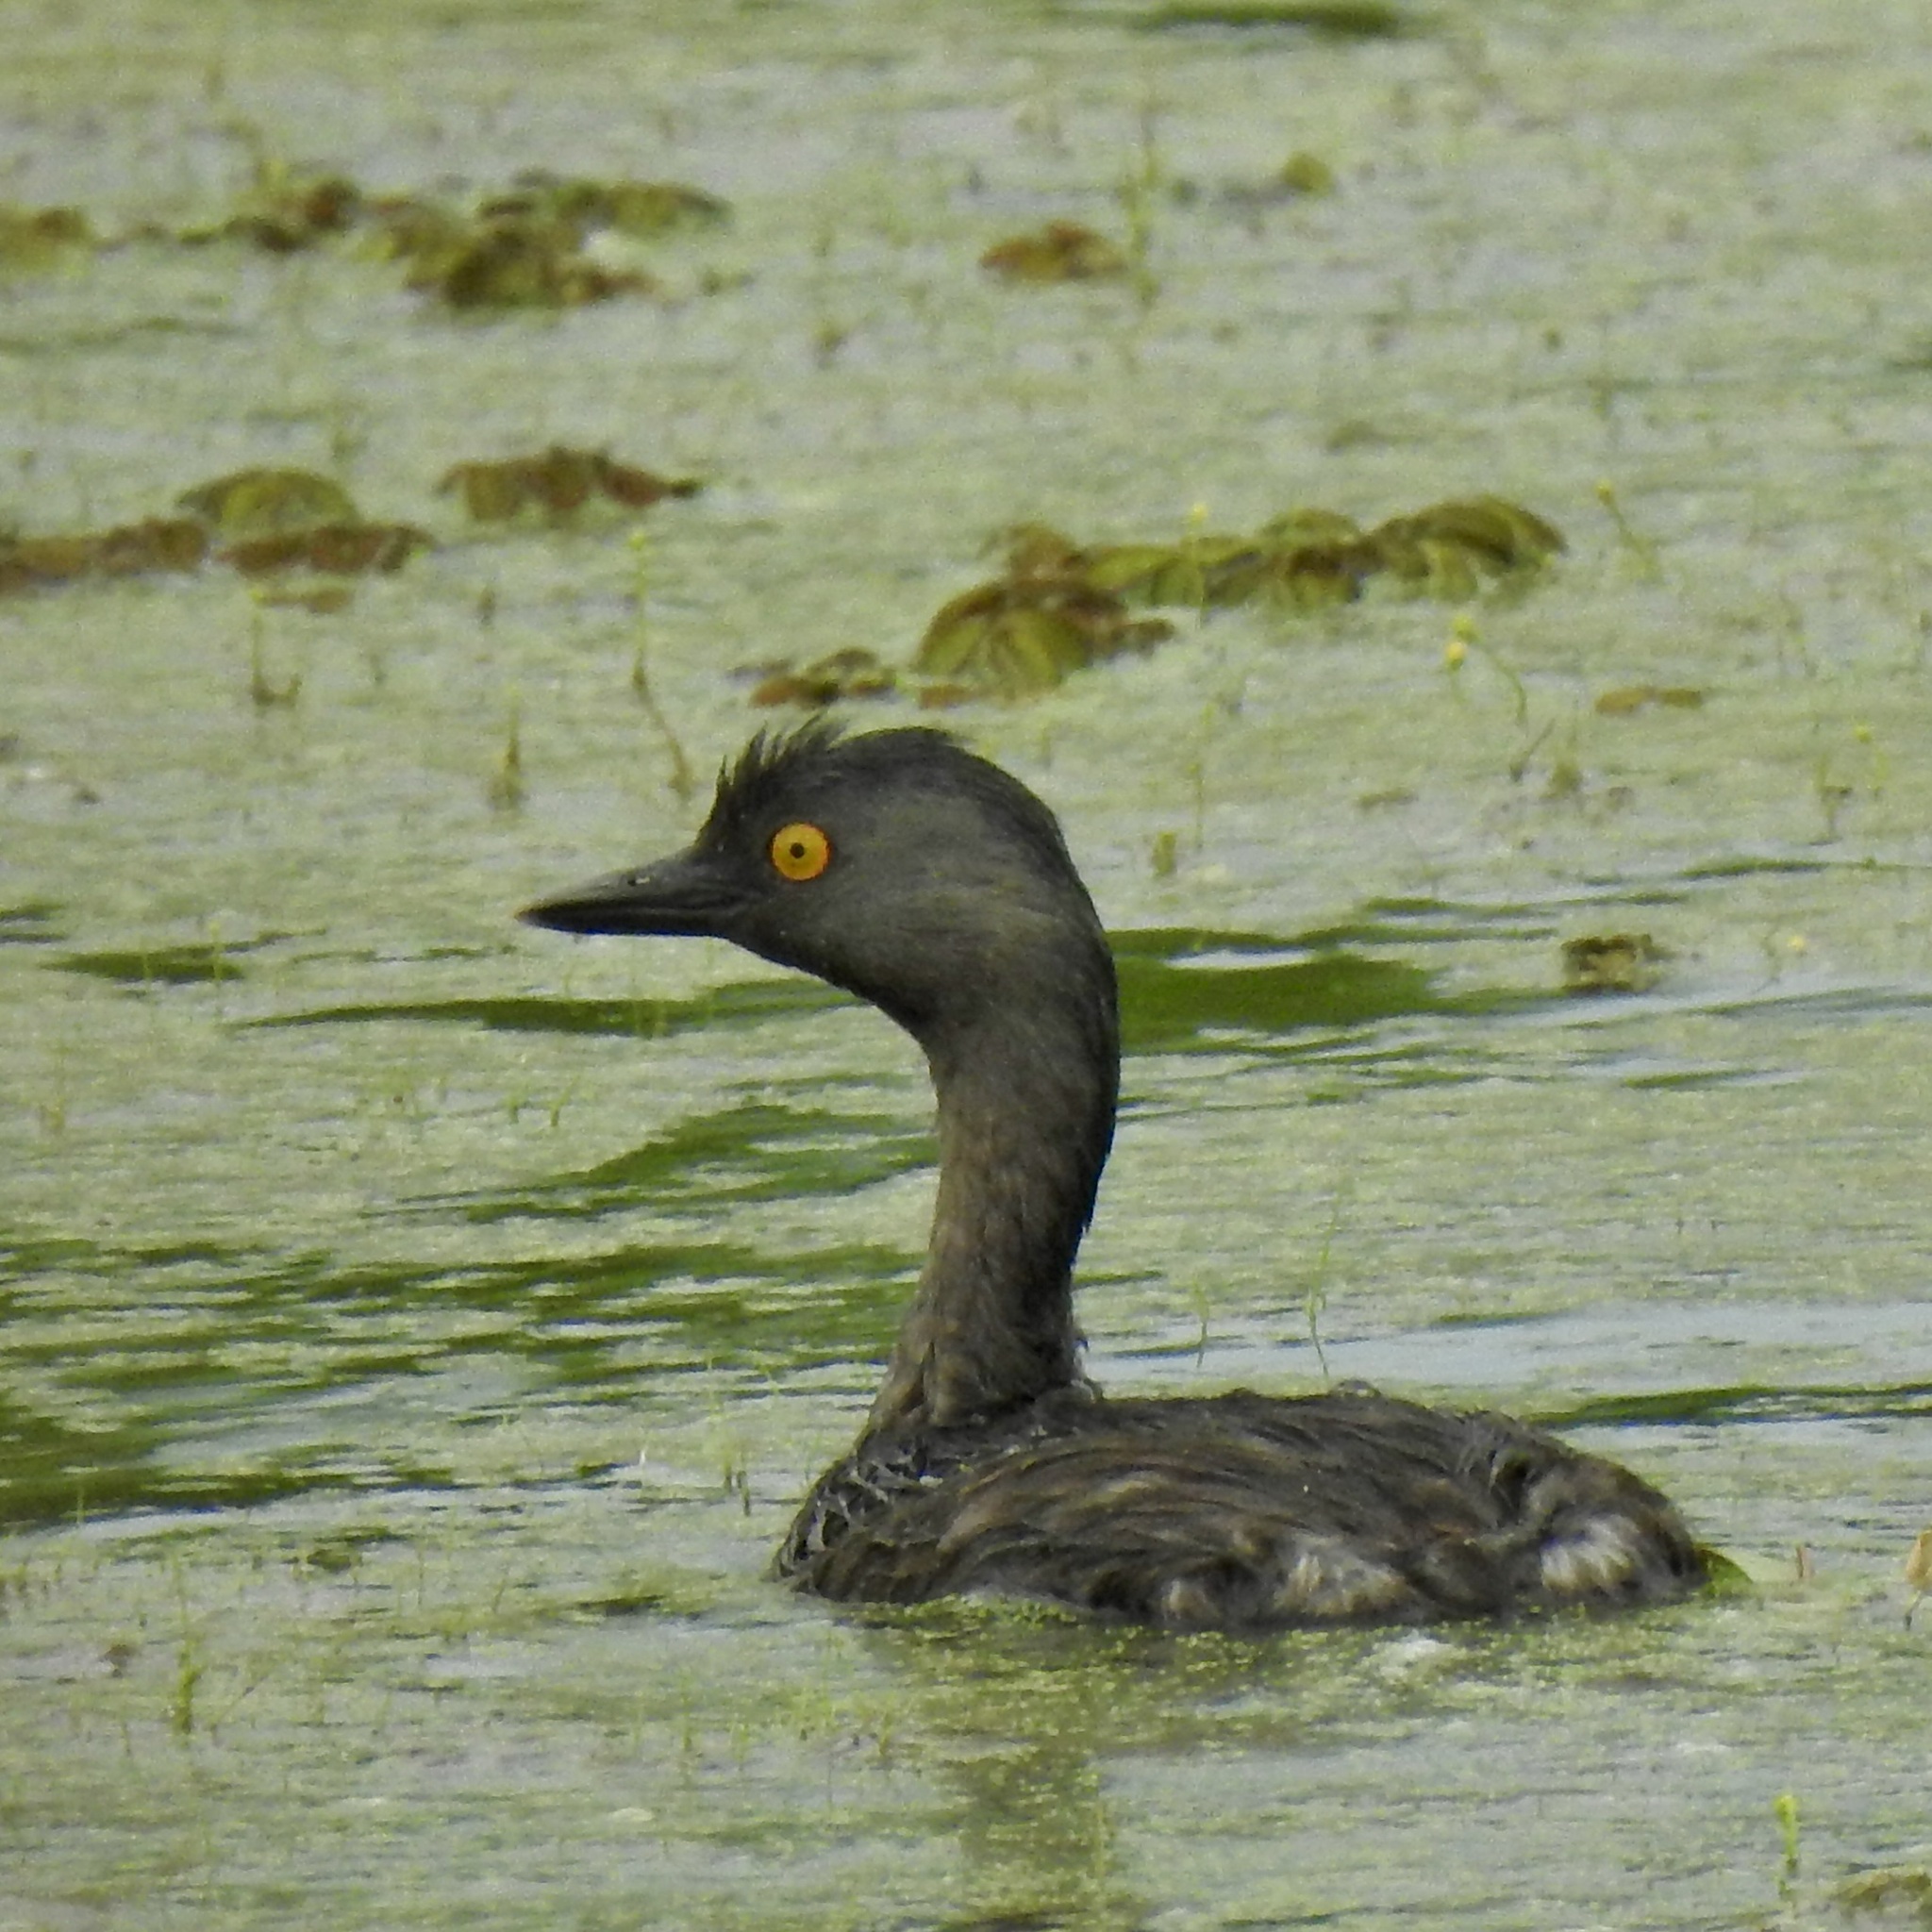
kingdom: Animalia
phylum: Chordata
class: Aves
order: Podicipediformes
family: Podicipedidae
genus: Tachybaptus
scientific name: Tachybaptus dominicus
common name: Least grebe
